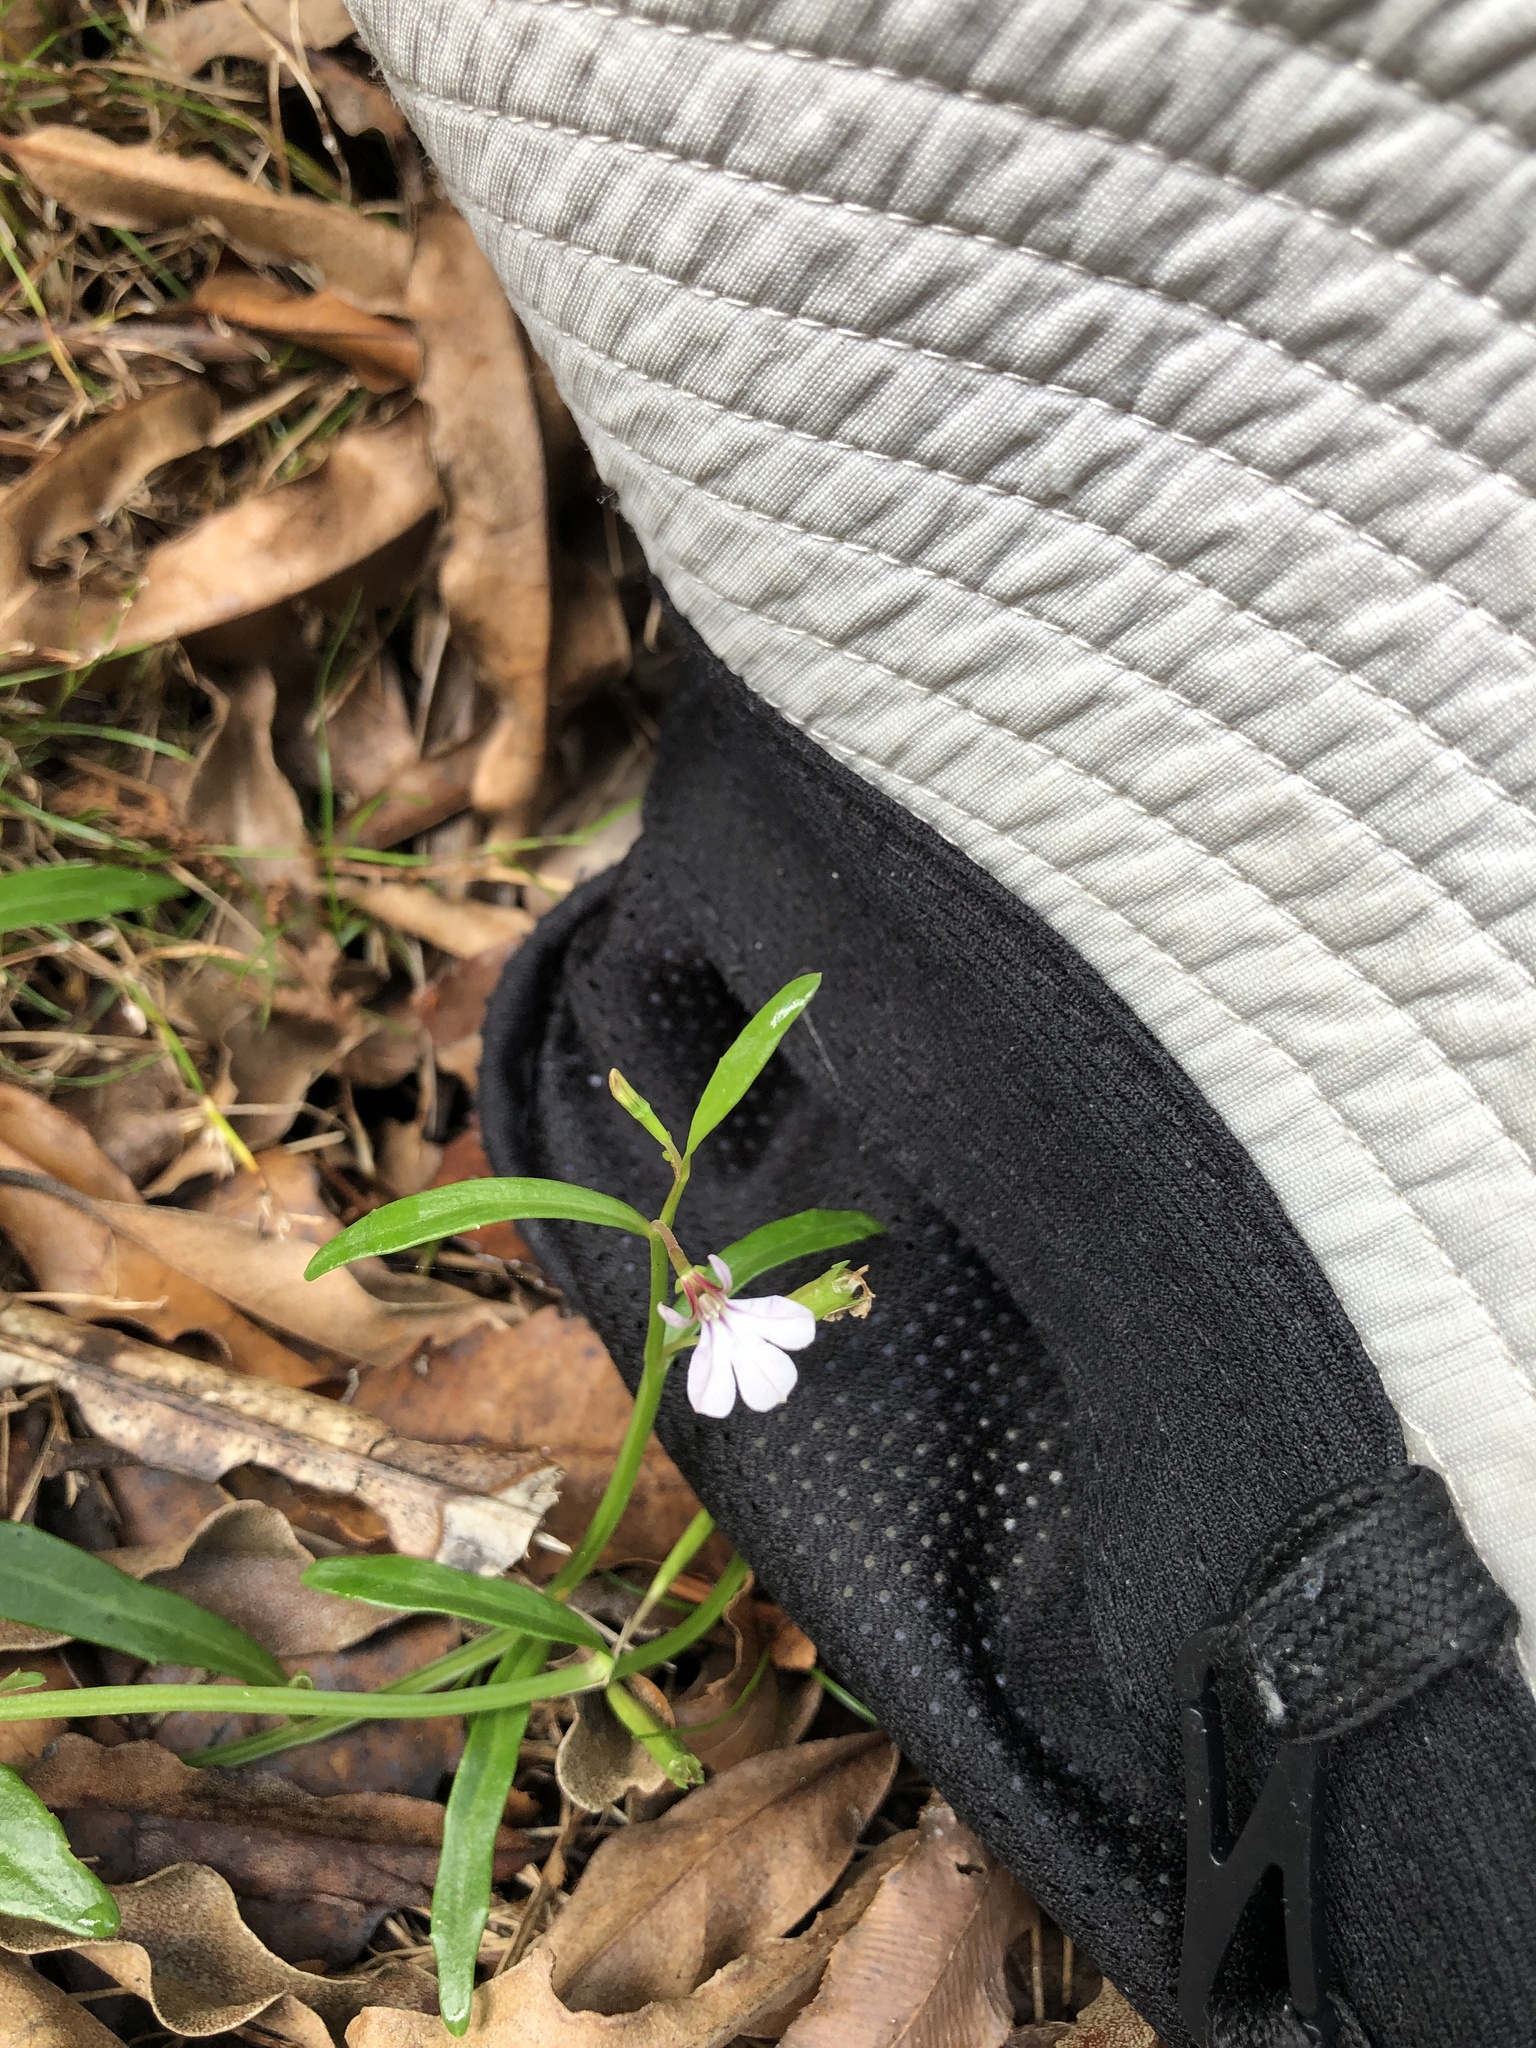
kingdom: Plantae
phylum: Tracheophyta
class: Magnoliopsida
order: Asterales
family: Campanulaceae
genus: Lobelia
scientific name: Lobelia anceps
